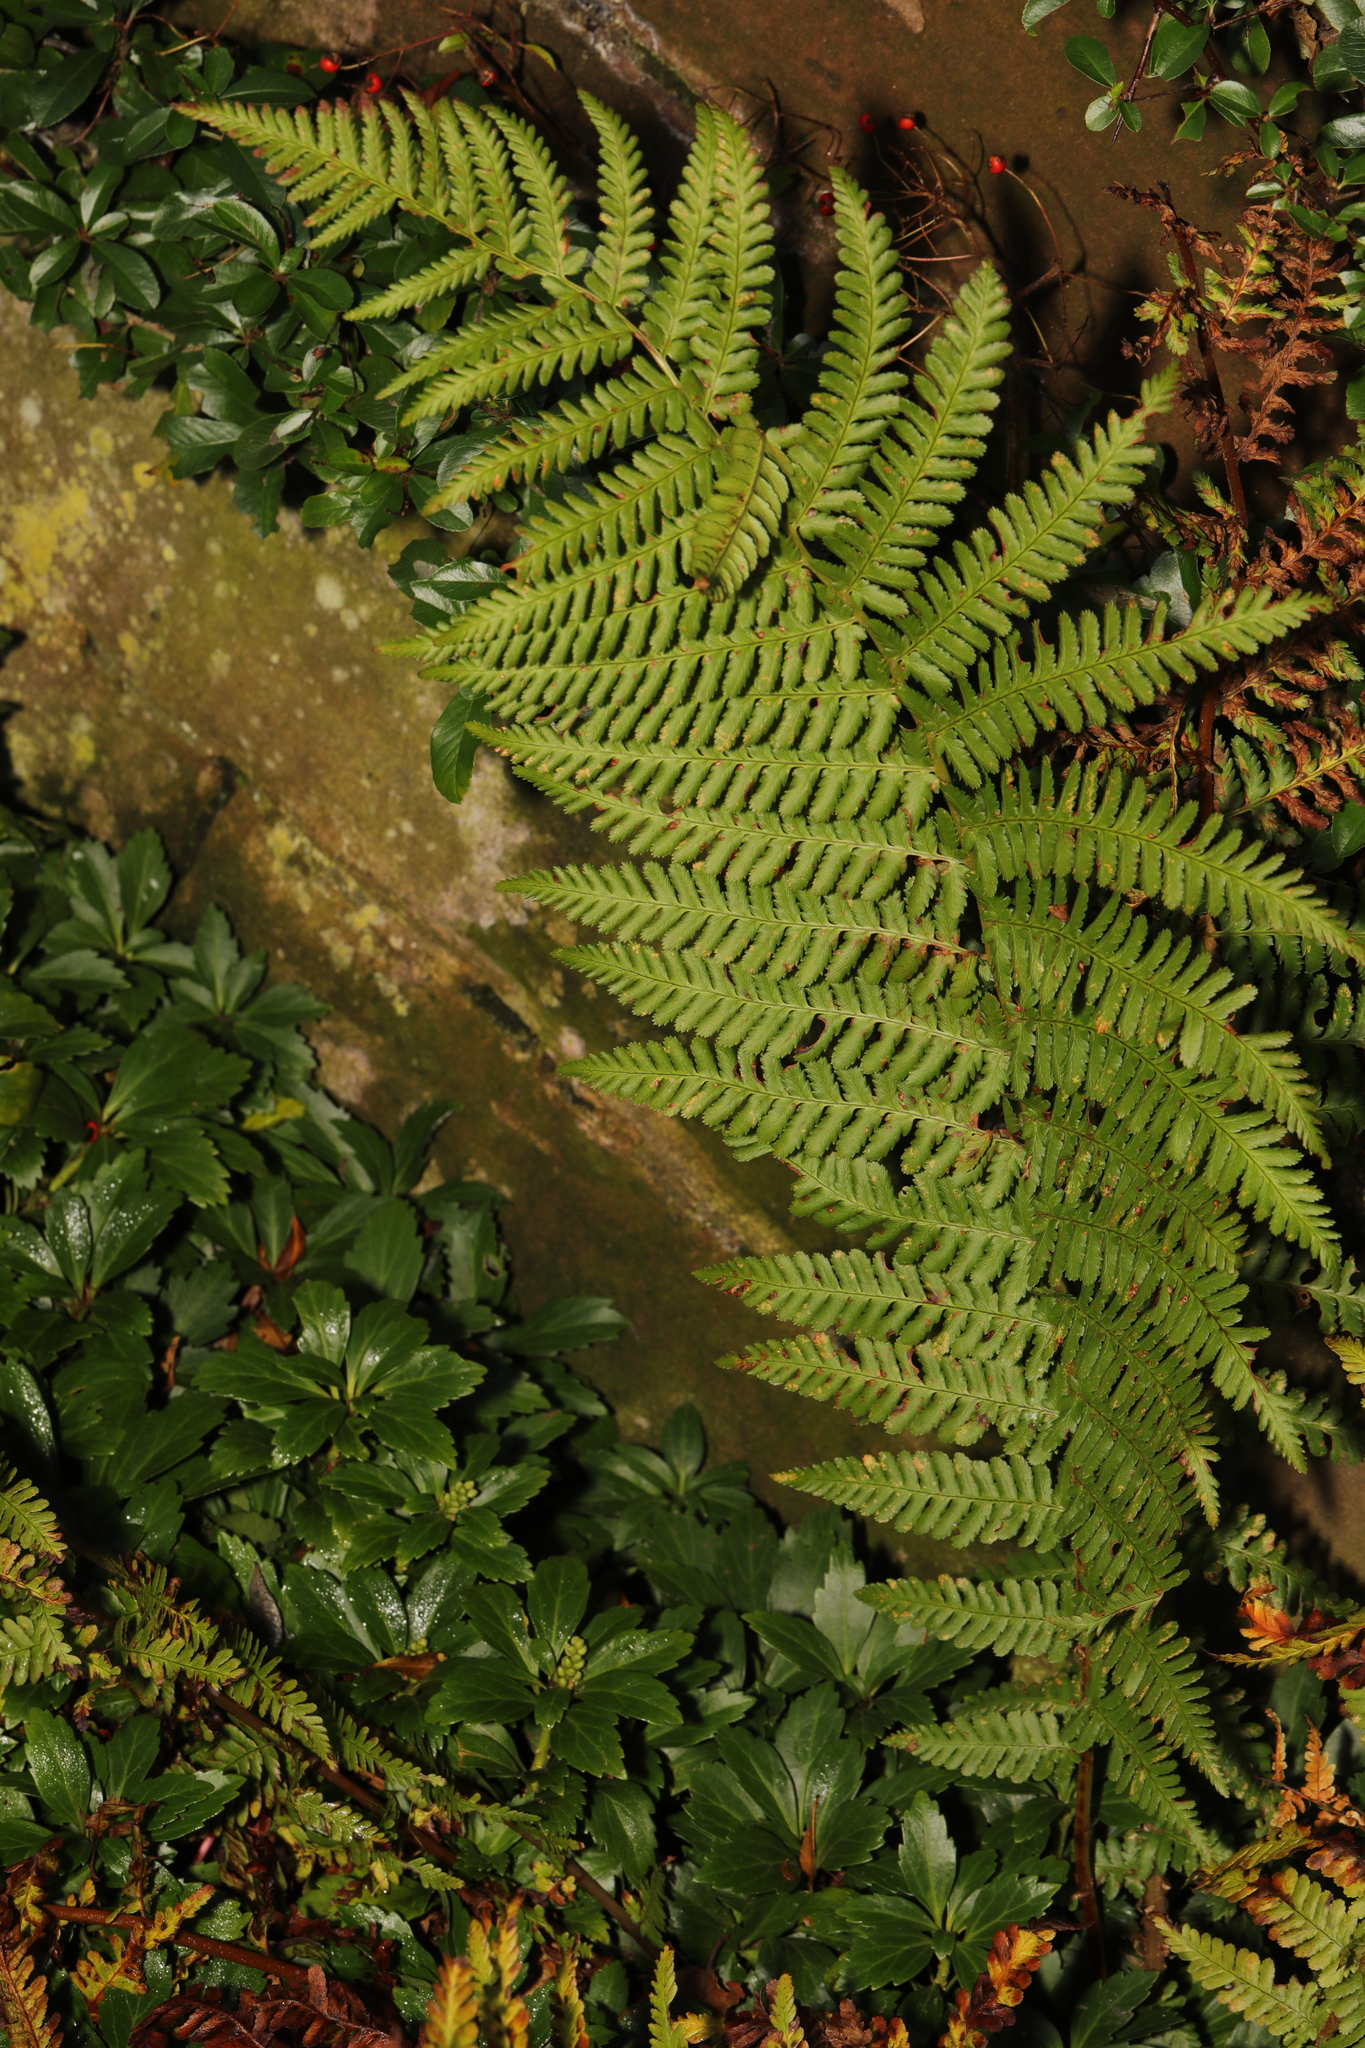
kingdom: Plantae
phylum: Tracheophyta
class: Polypodiopsida
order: Polypodiales
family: Dryopteridaceae
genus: Dryopteris
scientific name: Dryopteris filix-mas
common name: Male fern
